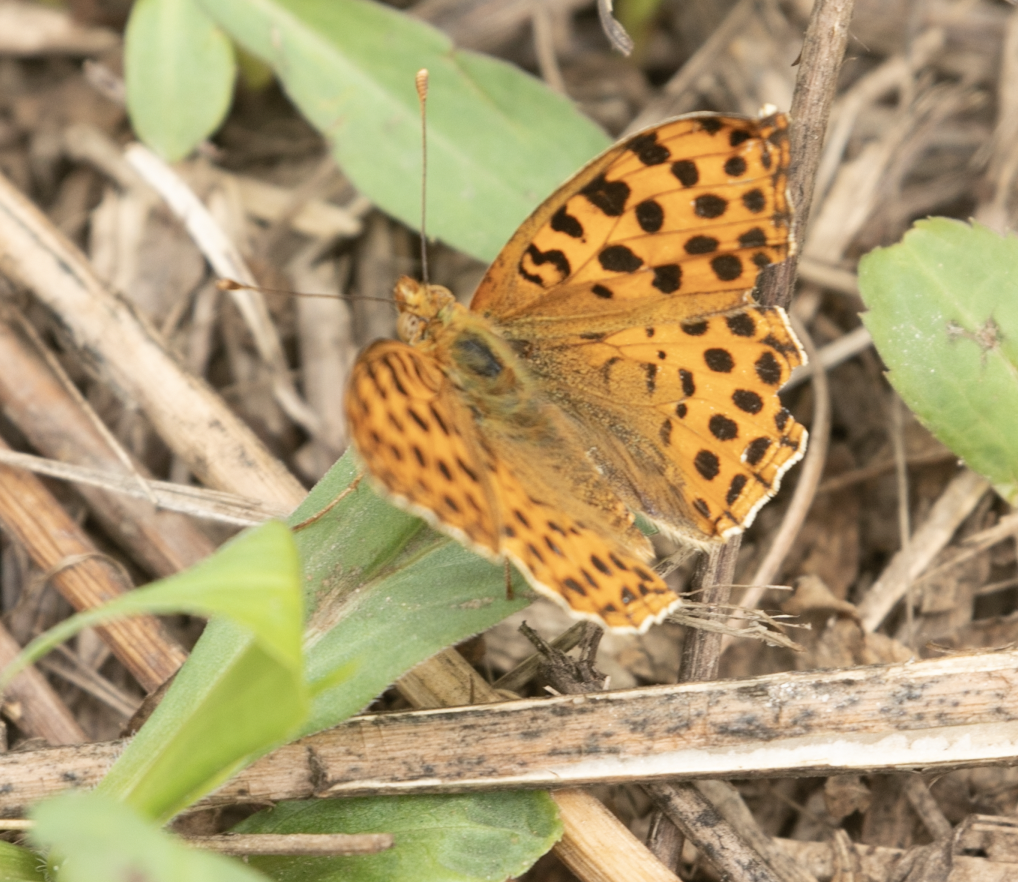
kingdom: Animalia
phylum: Arthropoda
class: Insecta
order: Lepidoptera
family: Nymphalidae
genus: Issoria
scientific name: Issoria lathonia
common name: Queen of spain fritillary
